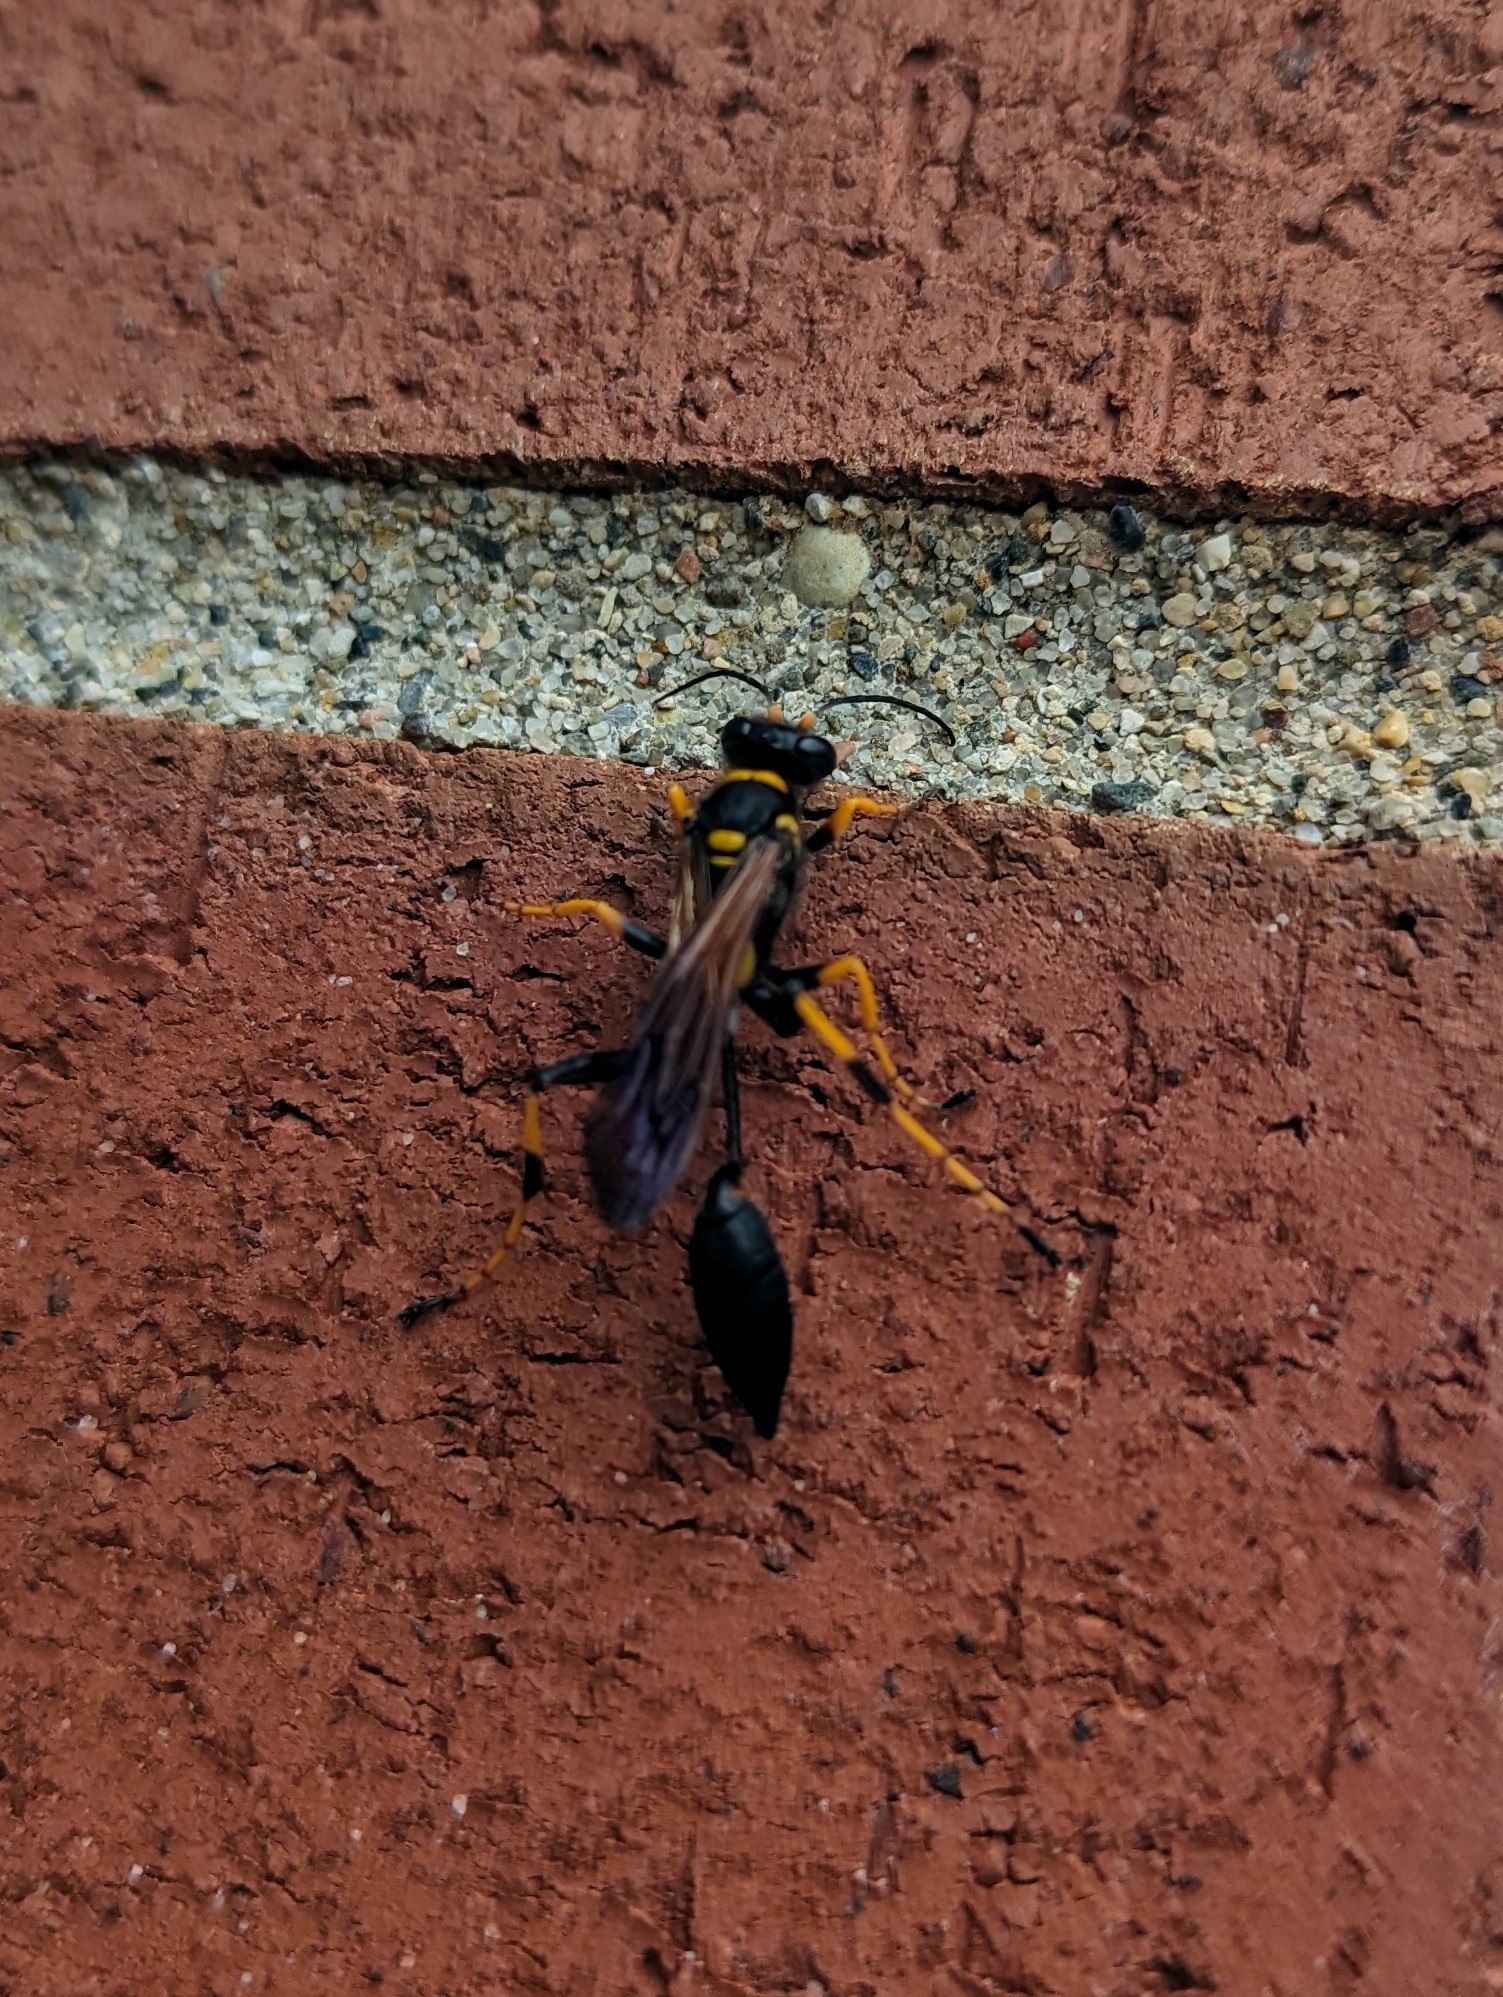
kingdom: Animalia
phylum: Arthropoda
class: Insecta
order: Hymenoptera
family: Sphecidae
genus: Sceliphron
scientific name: Sceliphron caementarium
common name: Mud dauber
